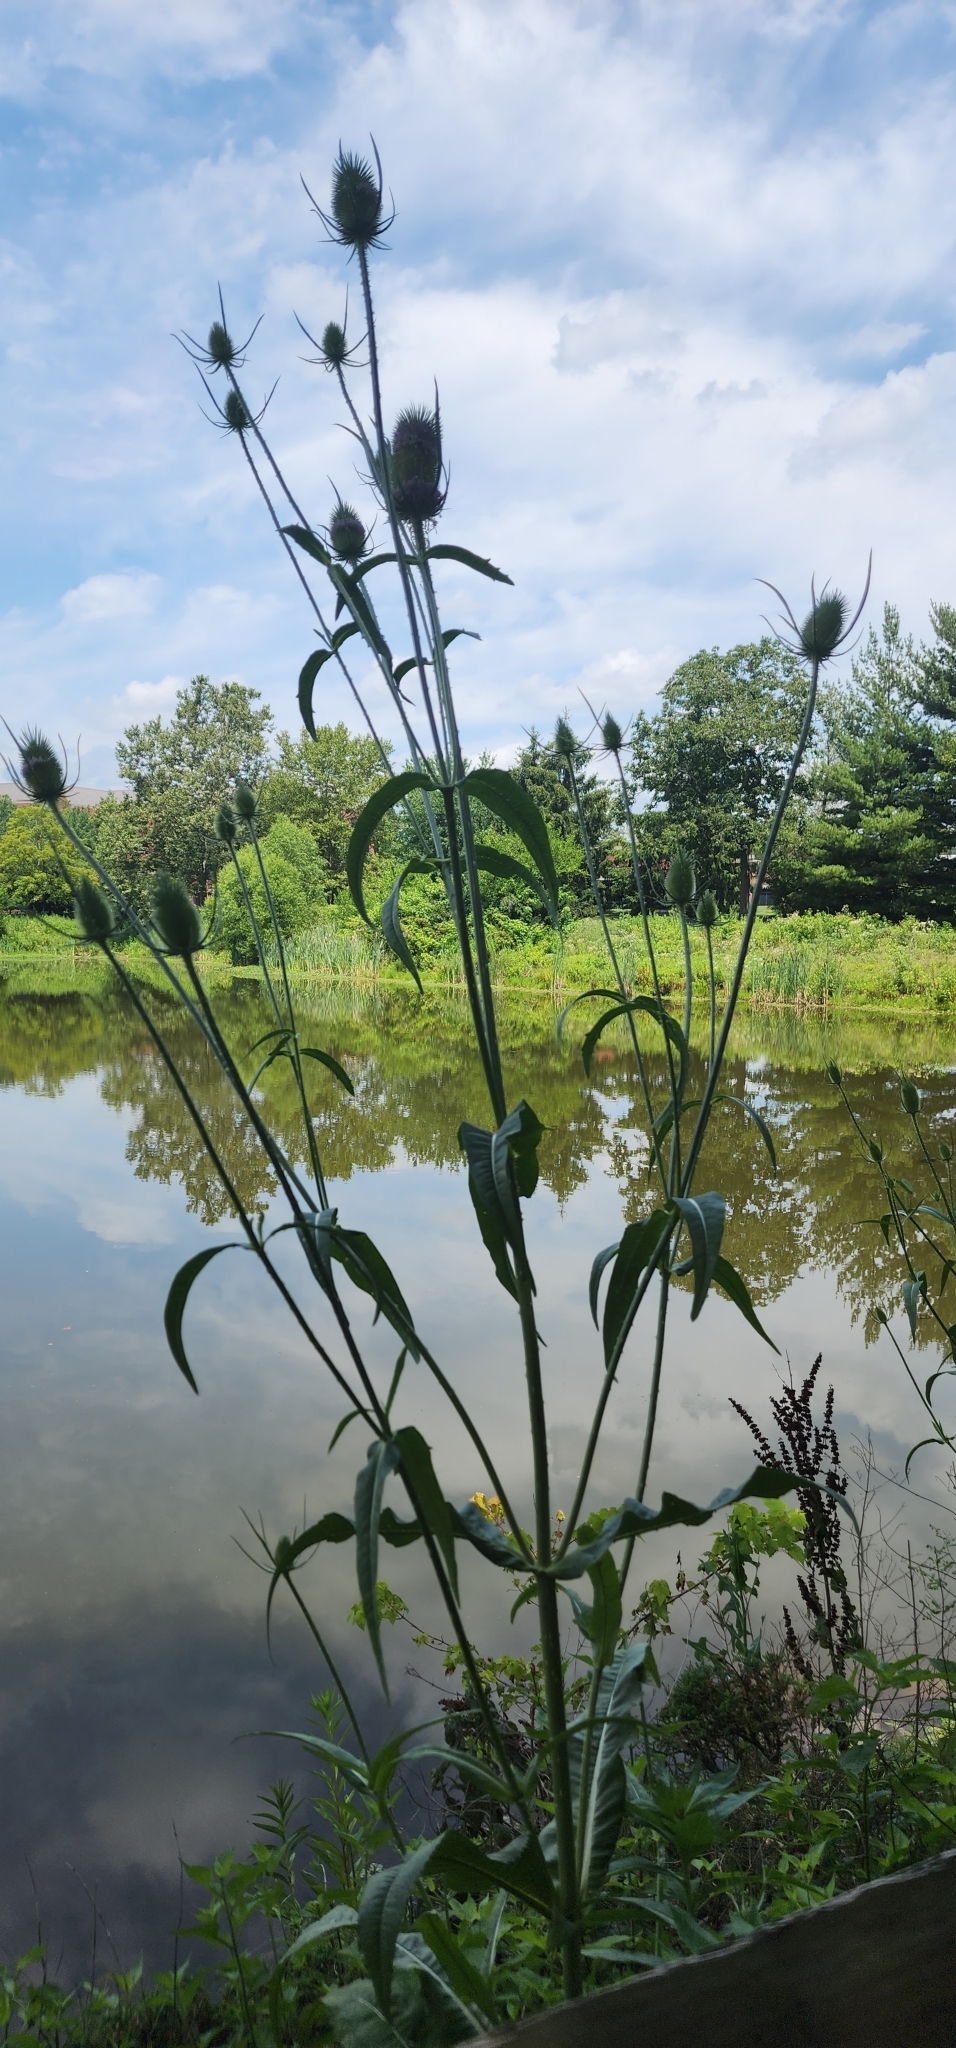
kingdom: Plantae
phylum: Tracheophyta
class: Magnoliopsida
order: Dipsacales
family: Caprifoliaceae
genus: Dipsacus
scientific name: Dipsacus fullonum
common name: Teasel
